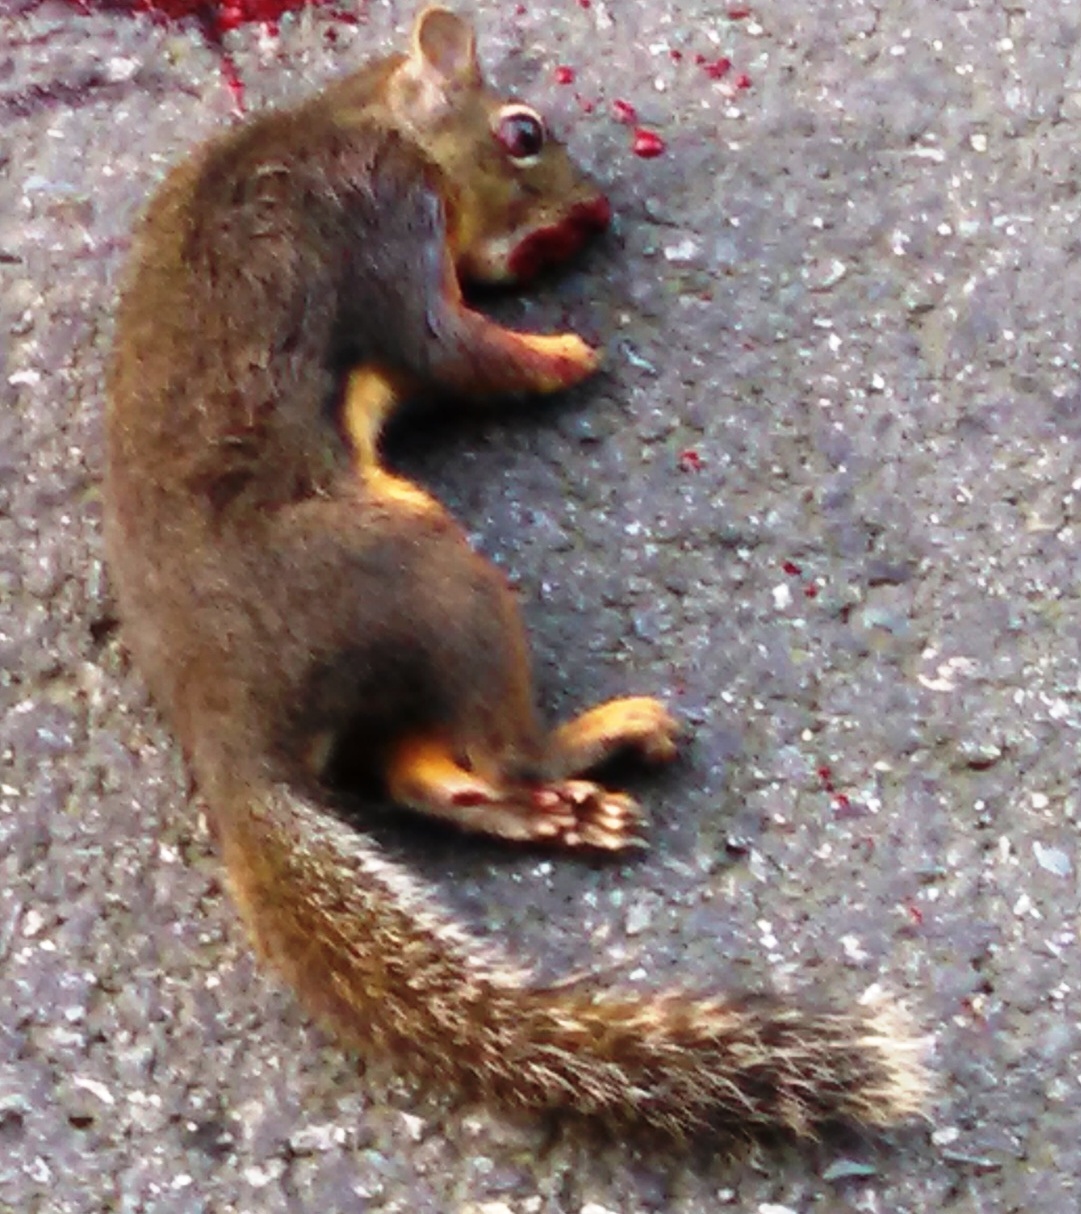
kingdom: Animalia
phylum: Chordata
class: Mammalia
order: Rodentia
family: Sciuridae
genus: Tamiasciurus
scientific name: Tamiasciurus douglasii
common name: Douglas's squirrel
